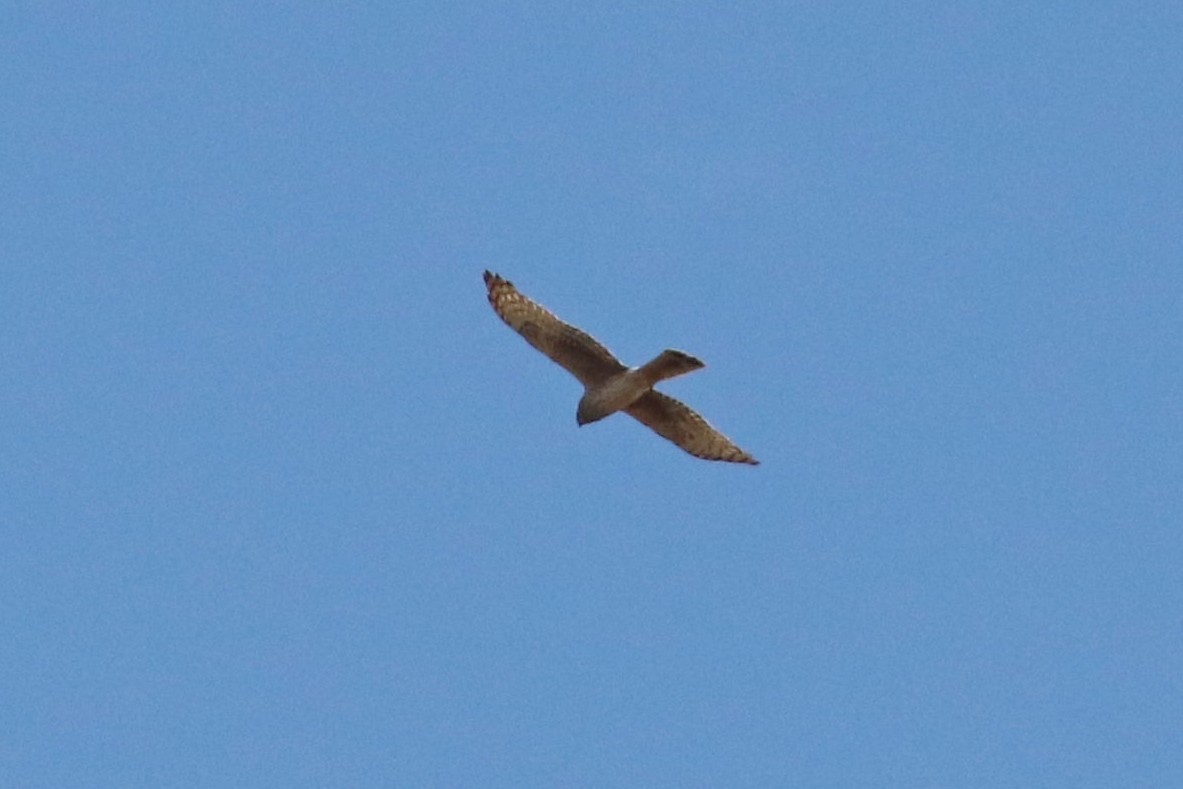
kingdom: Animalia
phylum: Chordata
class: Aves
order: Accipitriformes
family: Accipitridae
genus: Circus
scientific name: Circus cyaneus
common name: Hen harrier
